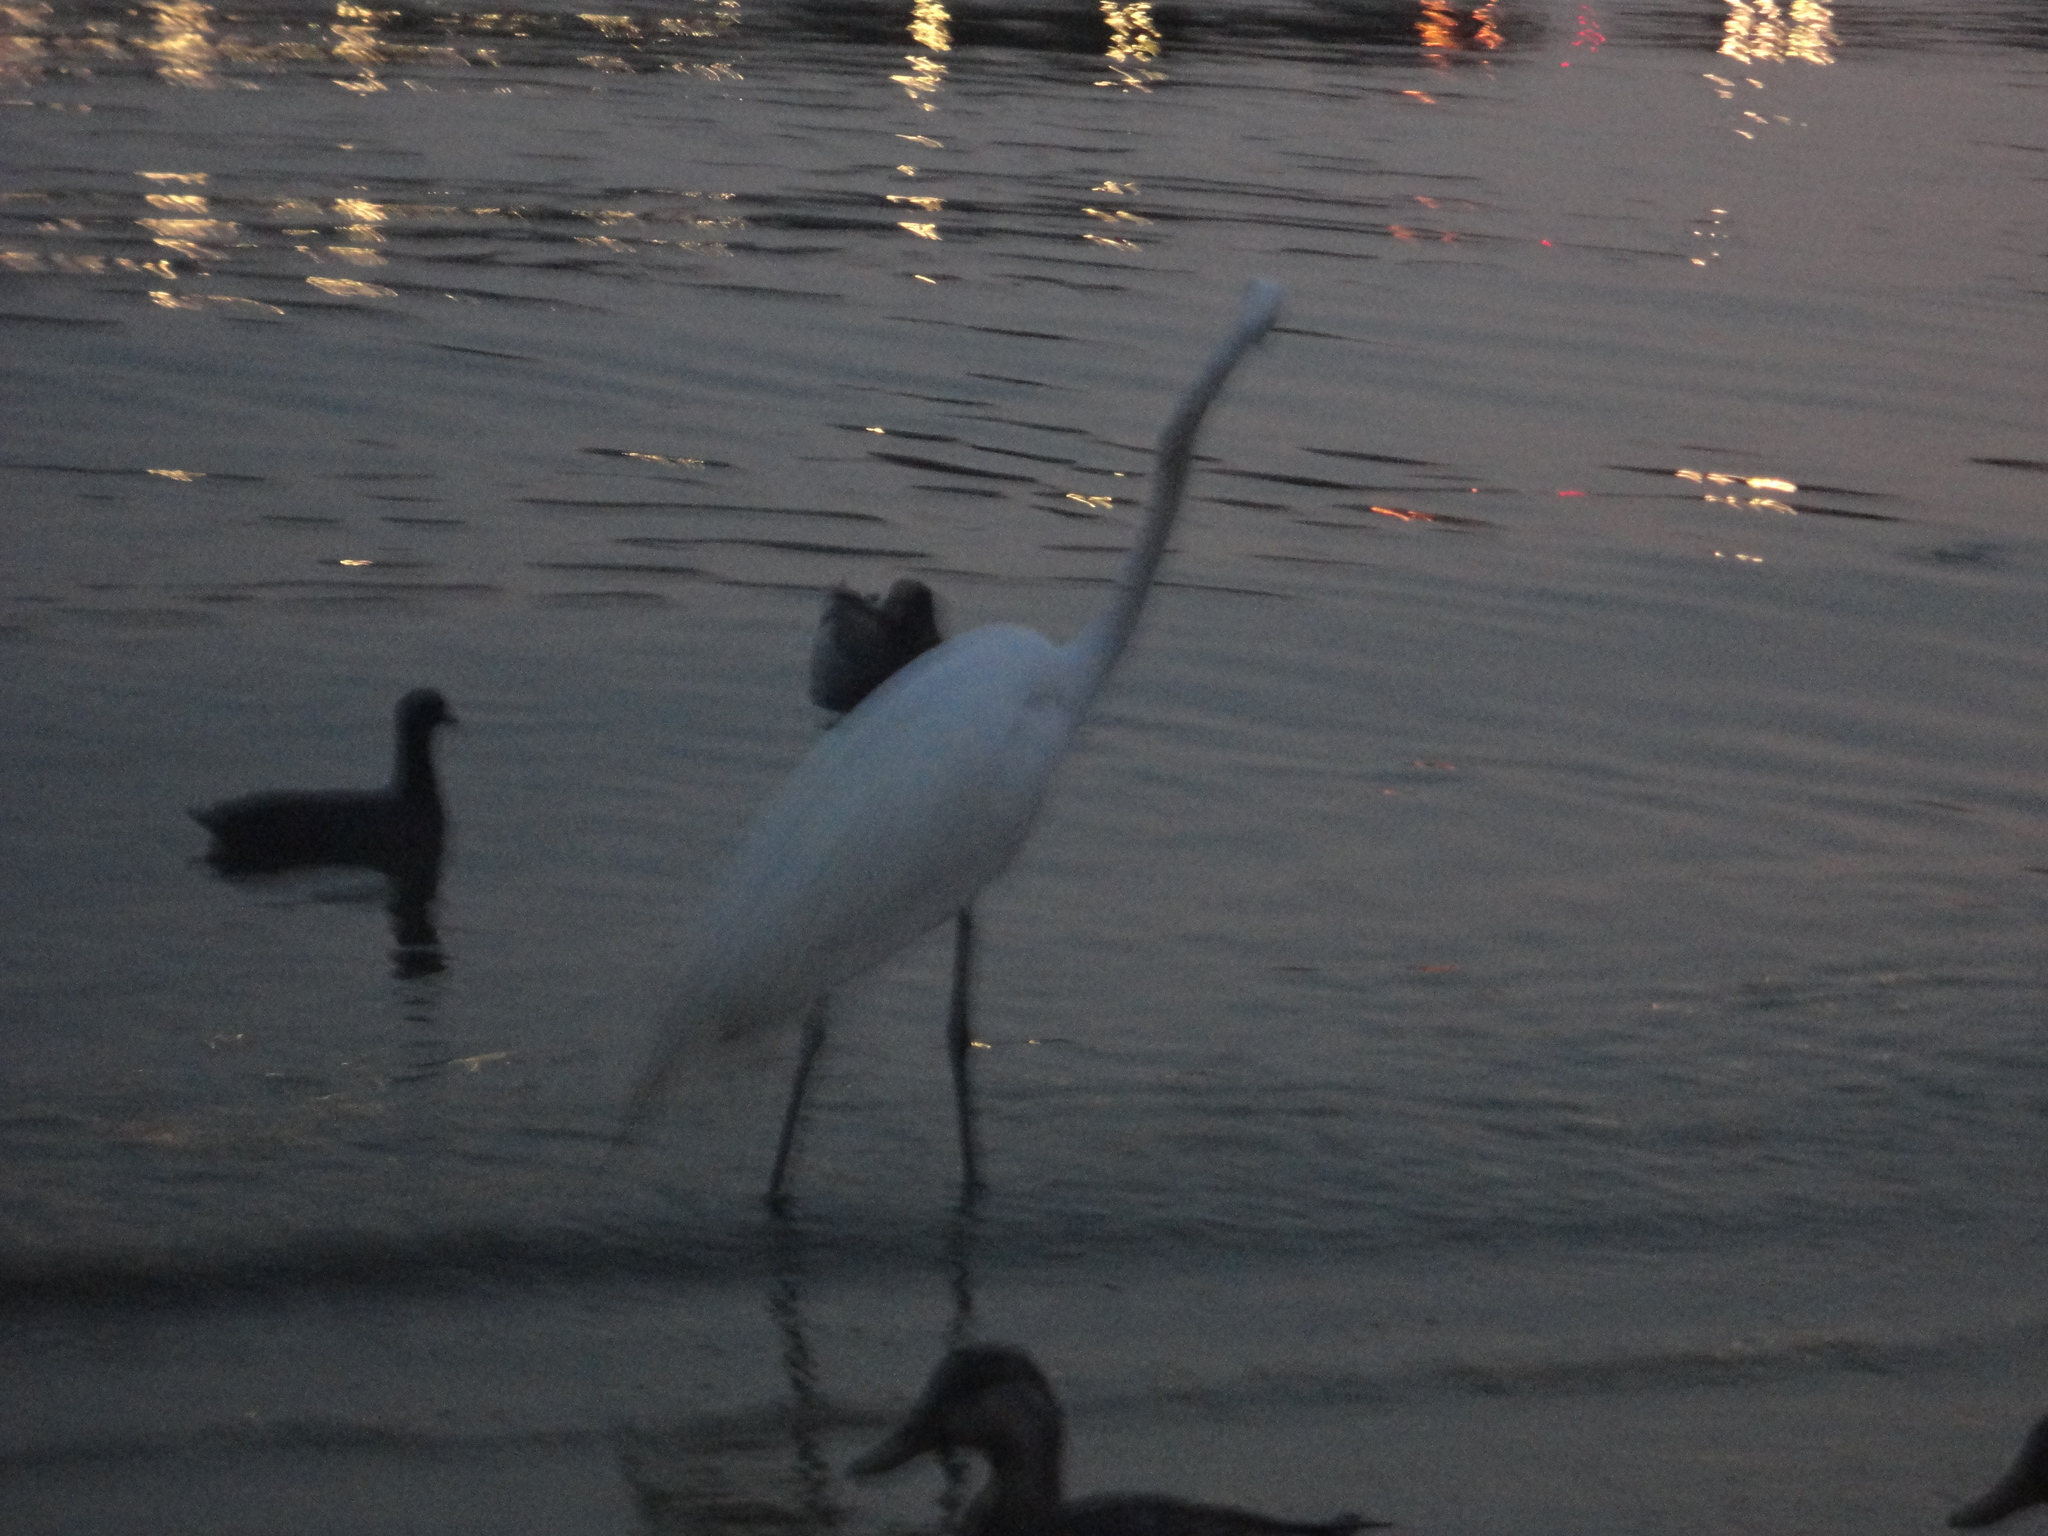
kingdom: Animalia
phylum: Chordata
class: Aves
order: Pelecaniformes
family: Ardeidae
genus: Ardea
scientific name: Ardea alba
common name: Great egret
